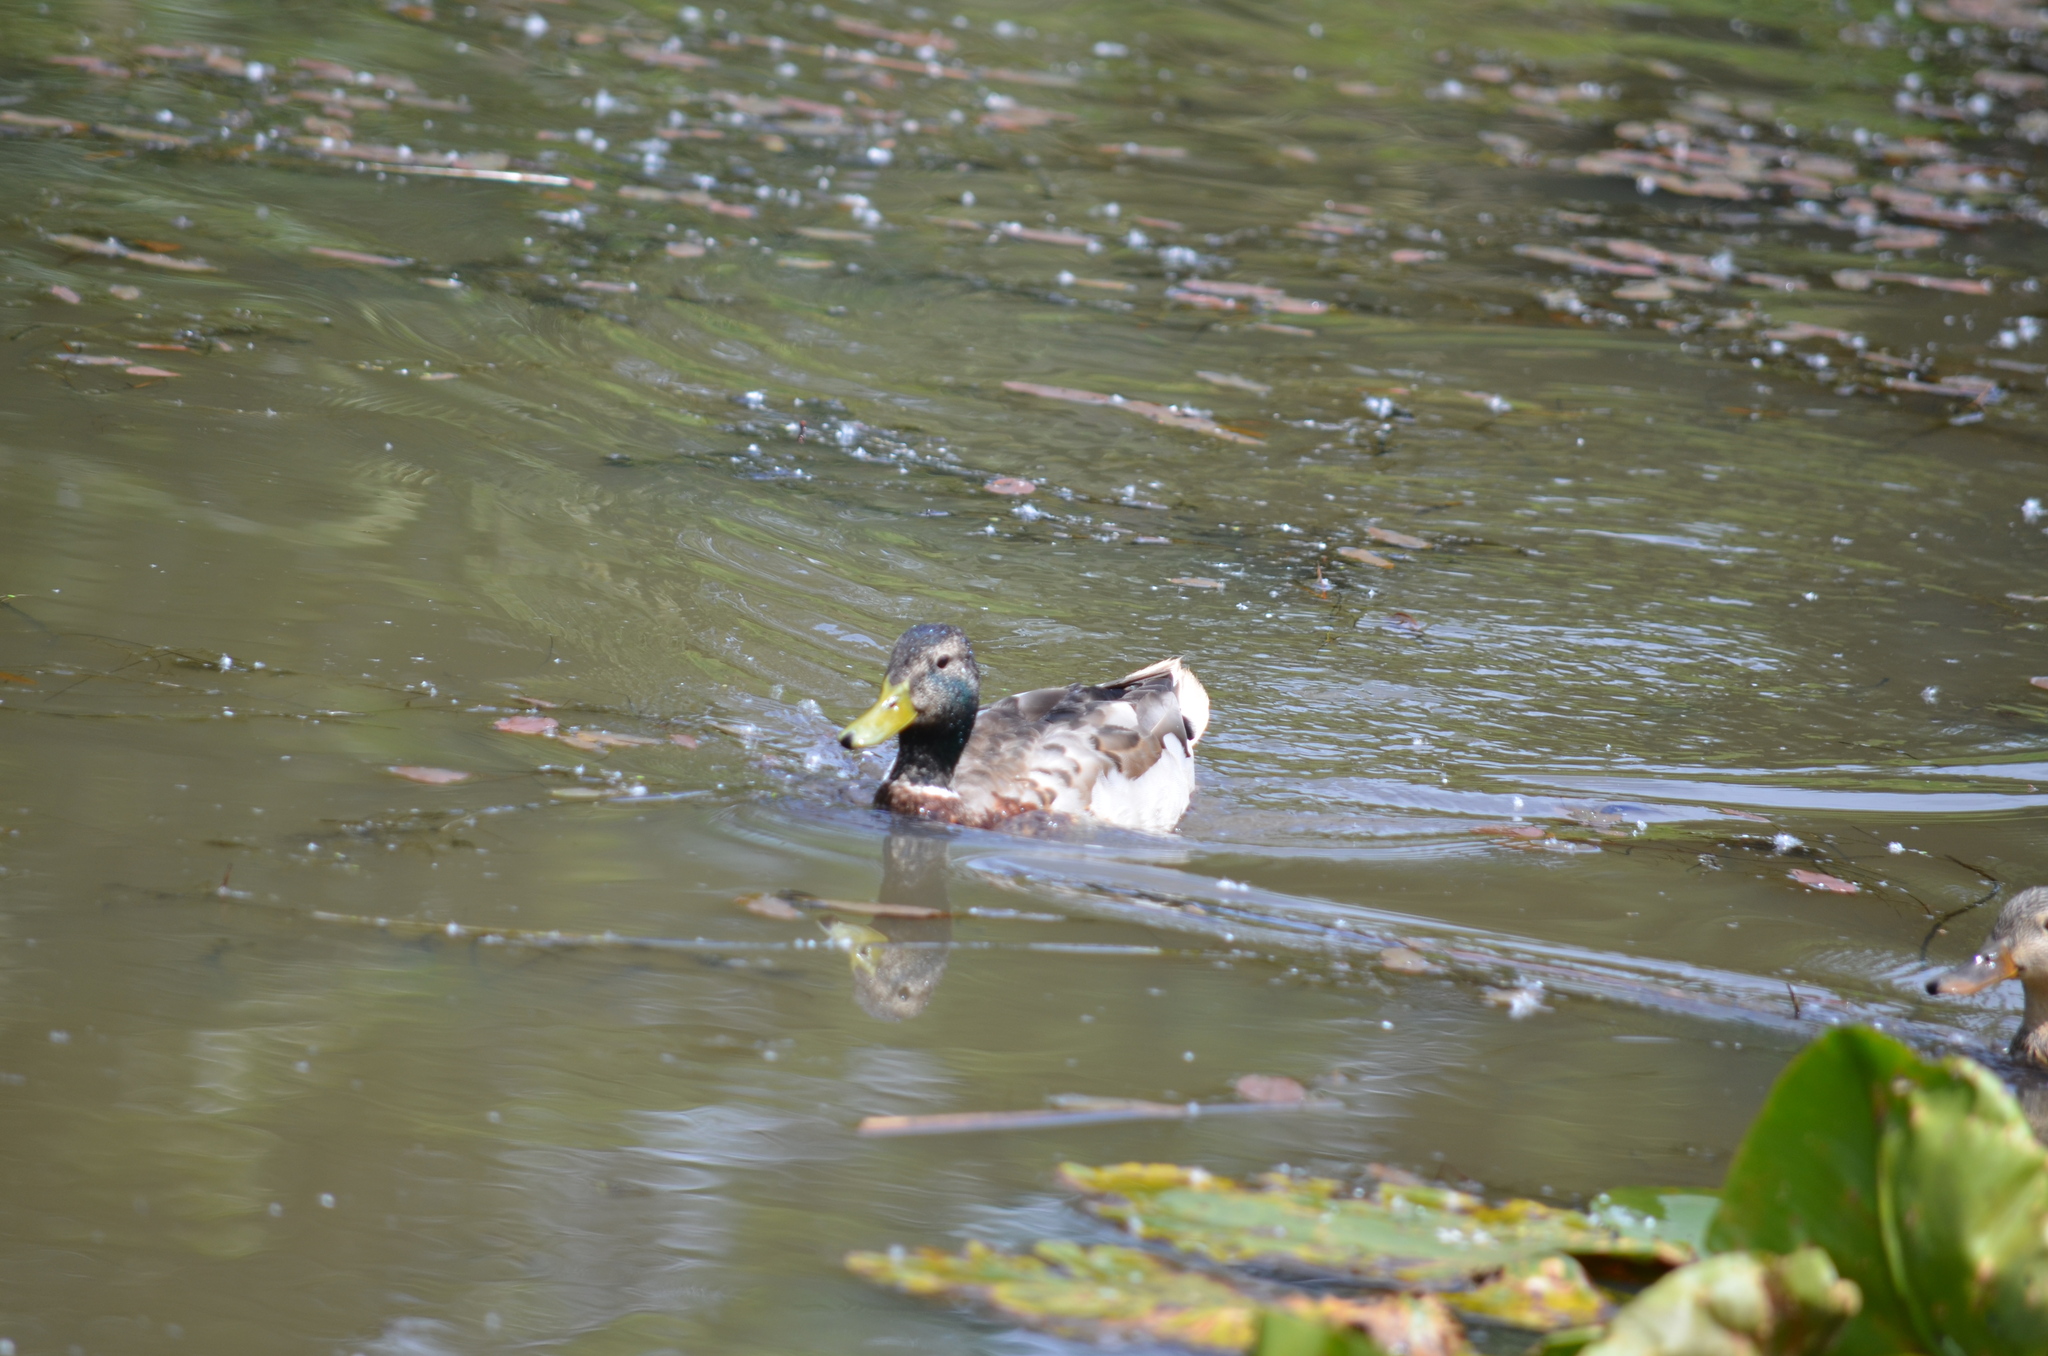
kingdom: Animalia
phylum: Chordata
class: Aves
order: Anseriformes
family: Anatidae
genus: Anas
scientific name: Anas platyrhynchos
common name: Mallard
